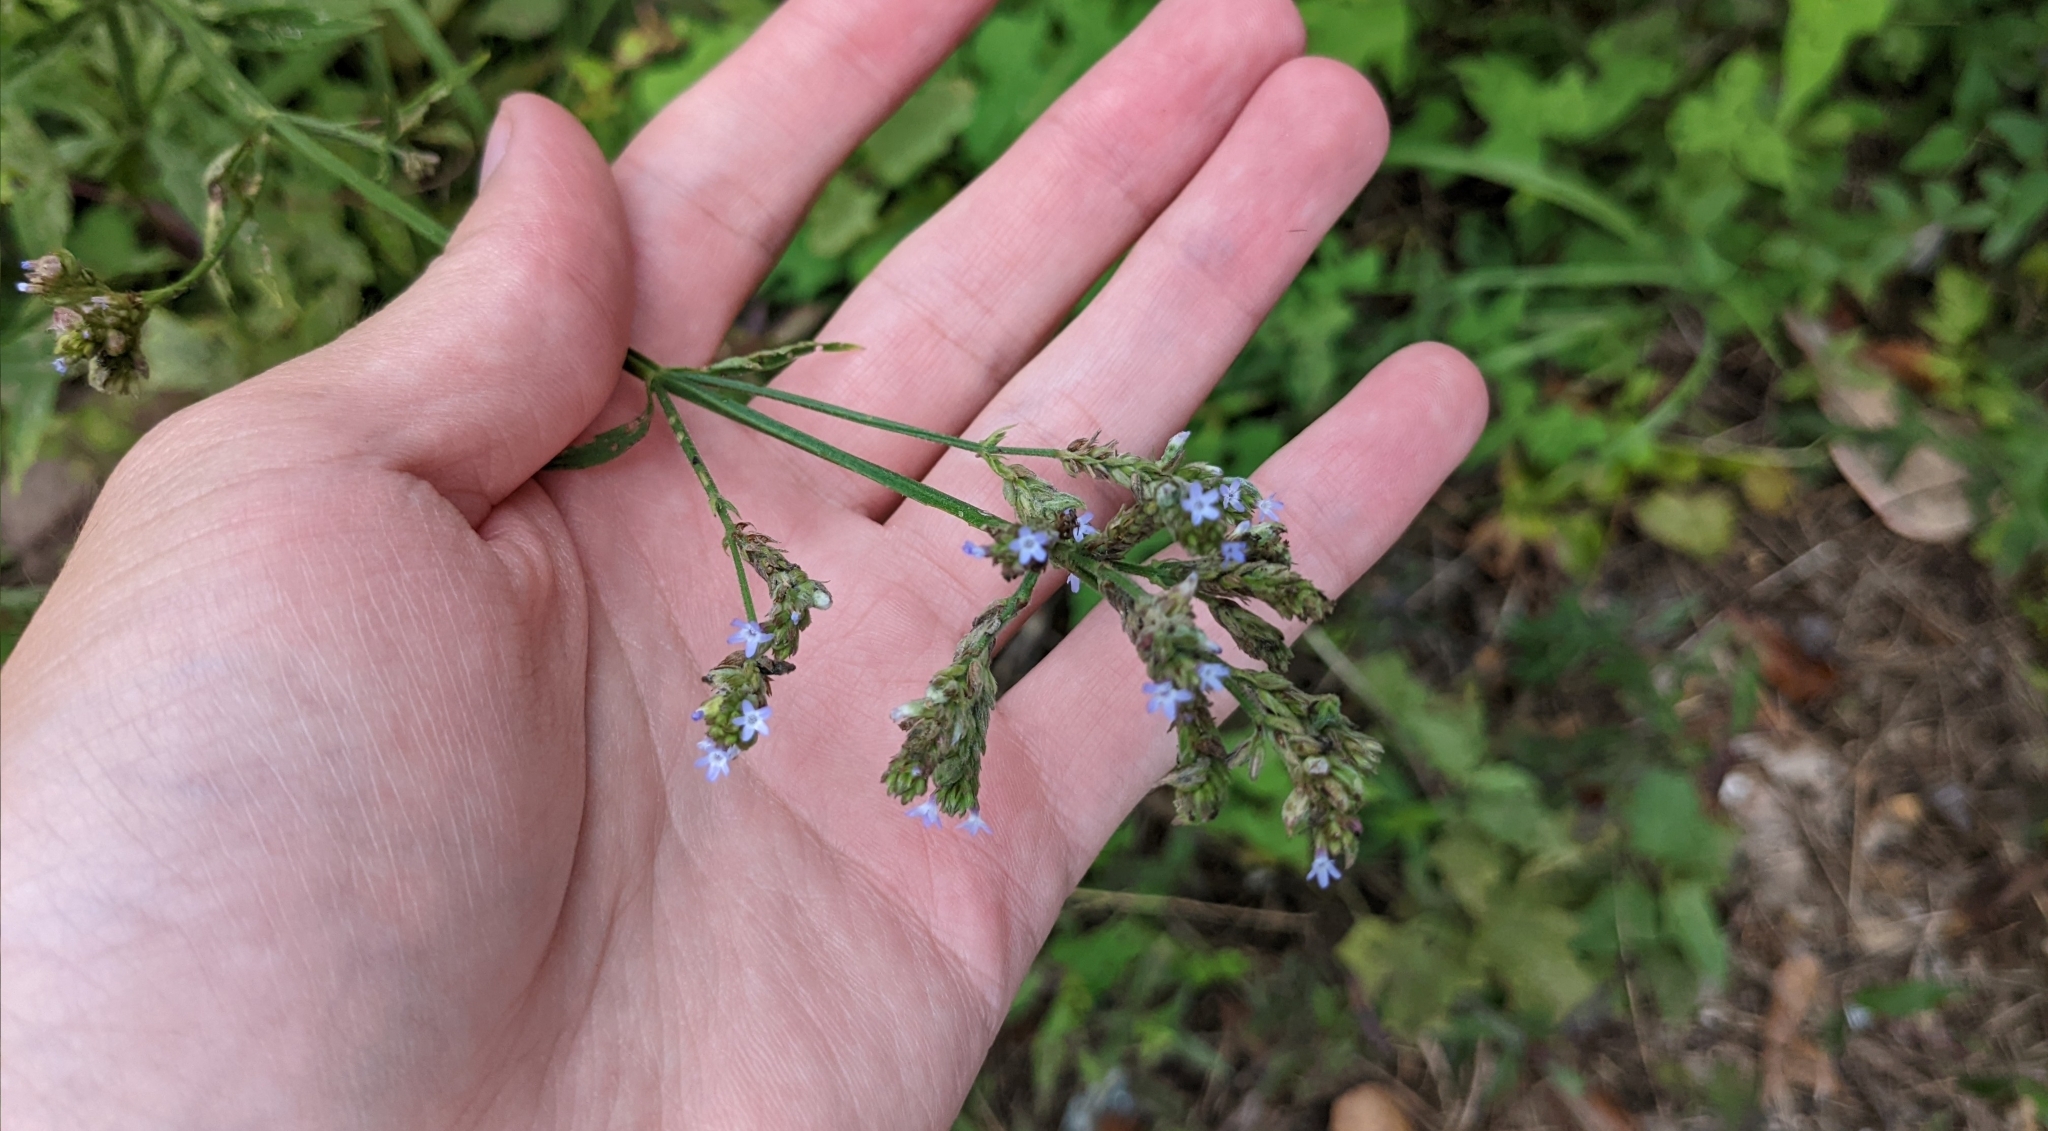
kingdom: Plantae
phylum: Tracheophyta
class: Magnoliopsida
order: Lamiales
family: Verbenaceae
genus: Verbena
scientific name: Verbena brasiliensis
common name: Brazilian vervain
